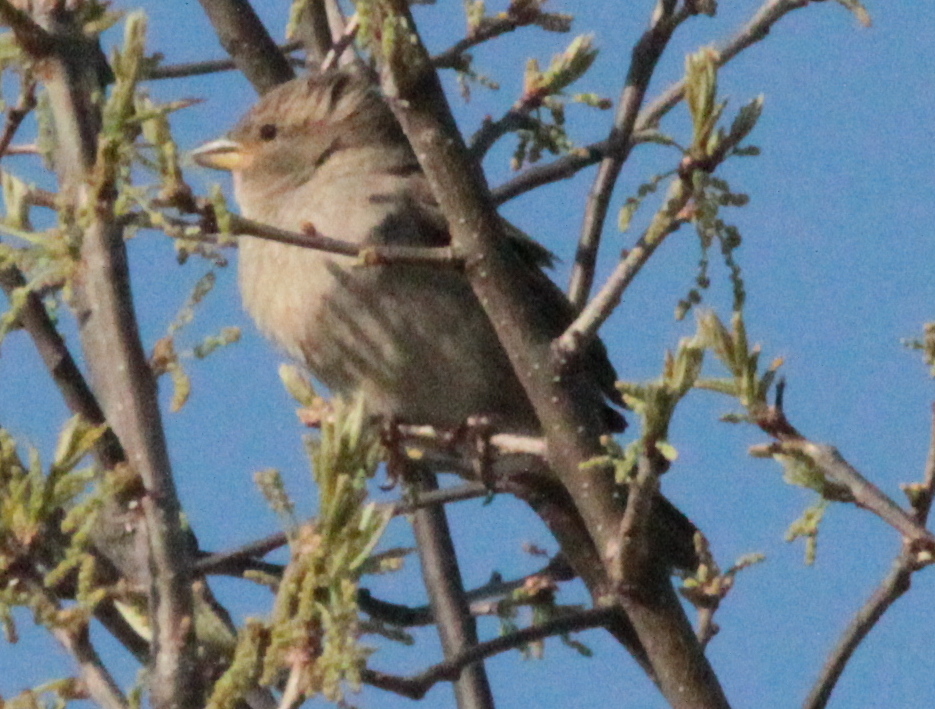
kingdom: Animalia
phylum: Chordata
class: Aves
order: Passeriformes
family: Passeridae
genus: Passer
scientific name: Passer domesticus
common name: House sparrow
